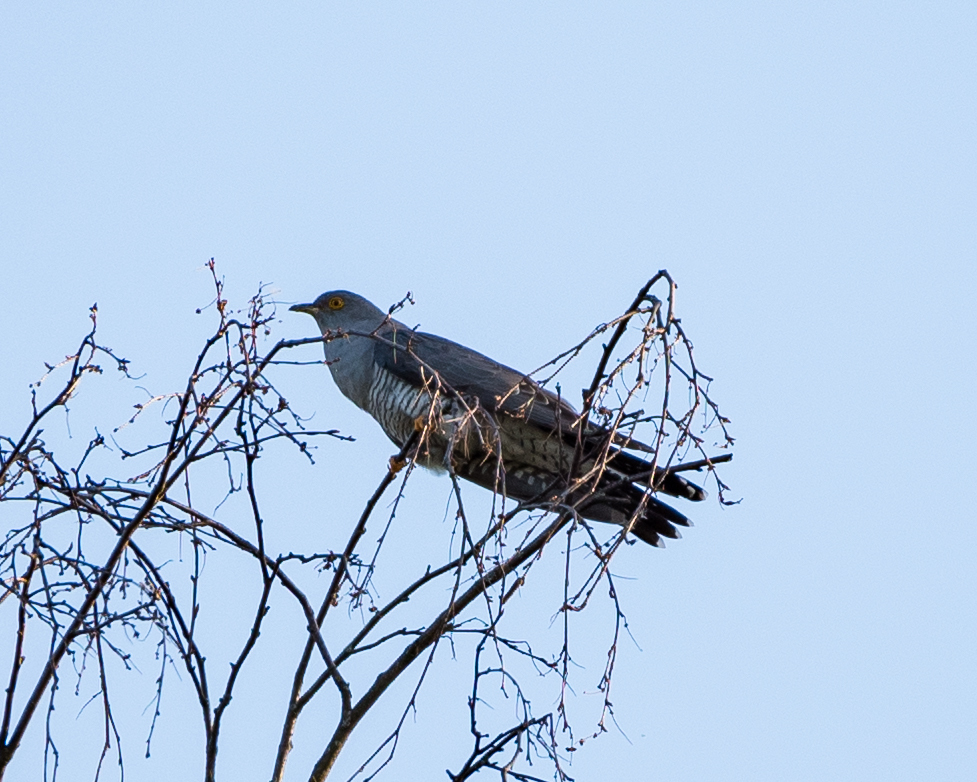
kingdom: Animalia
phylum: Chordata
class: Aves
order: Cuculiformes
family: Cuculidae
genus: Cuculus
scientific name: Cuculus canorus
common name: Common cuckoo
